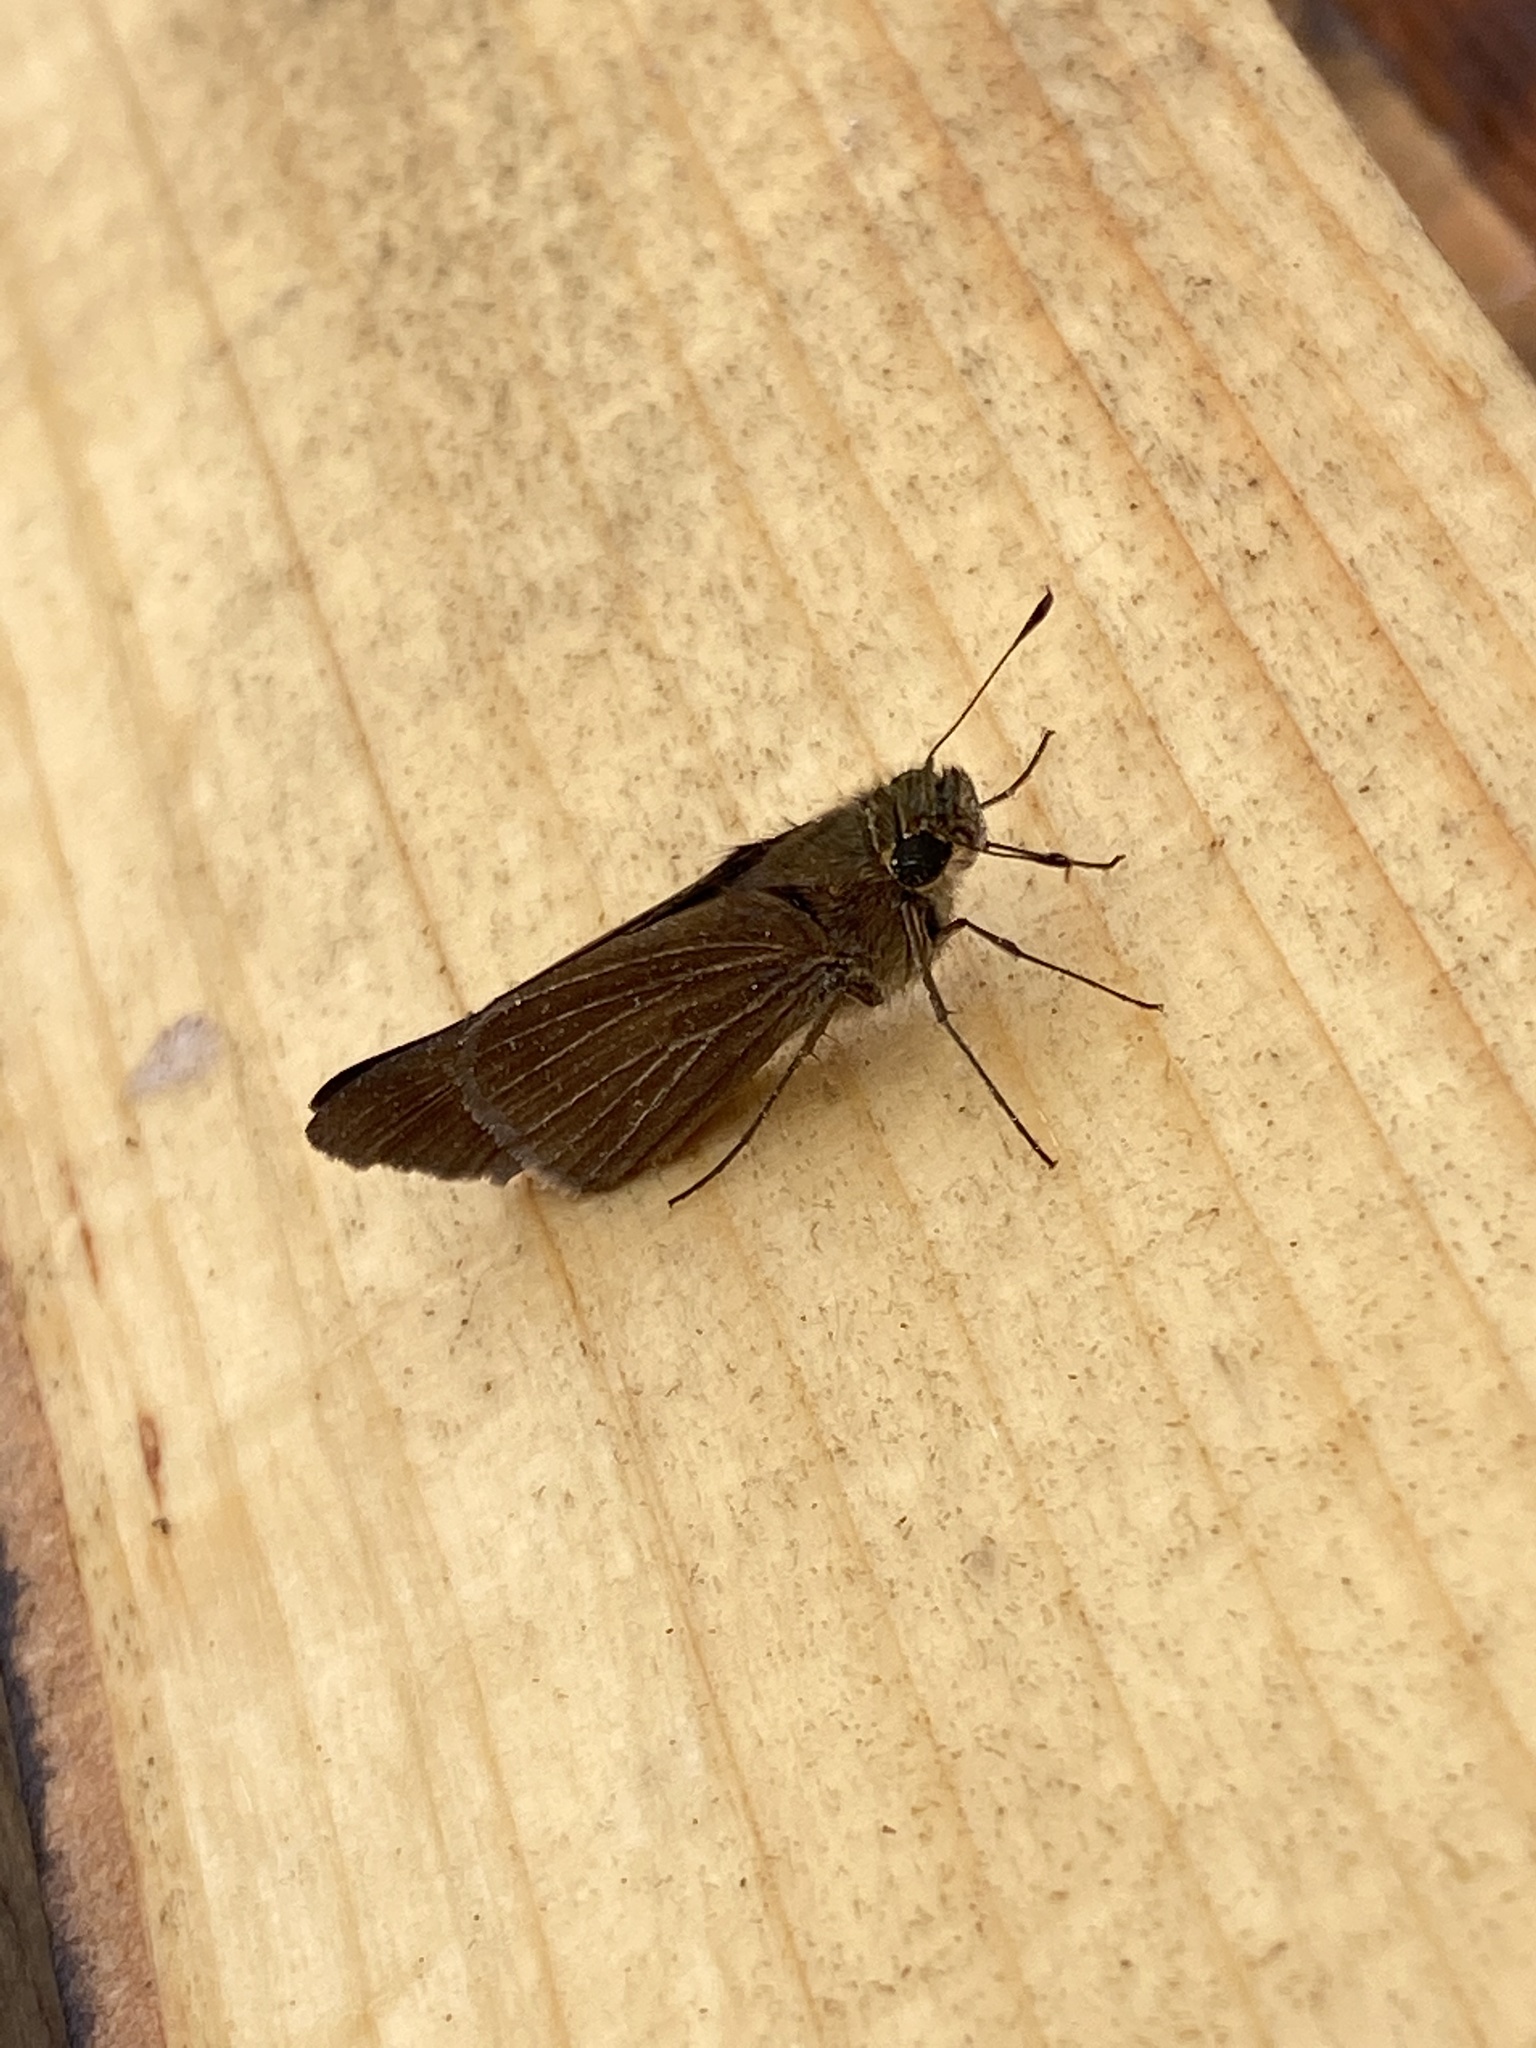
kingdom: Animalia
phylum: Arthropoda
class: Insecta
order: Lepidoptera
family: Hesperiidae
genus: Panoquina
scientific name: Panoquina ocola
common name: Ocola skipper
